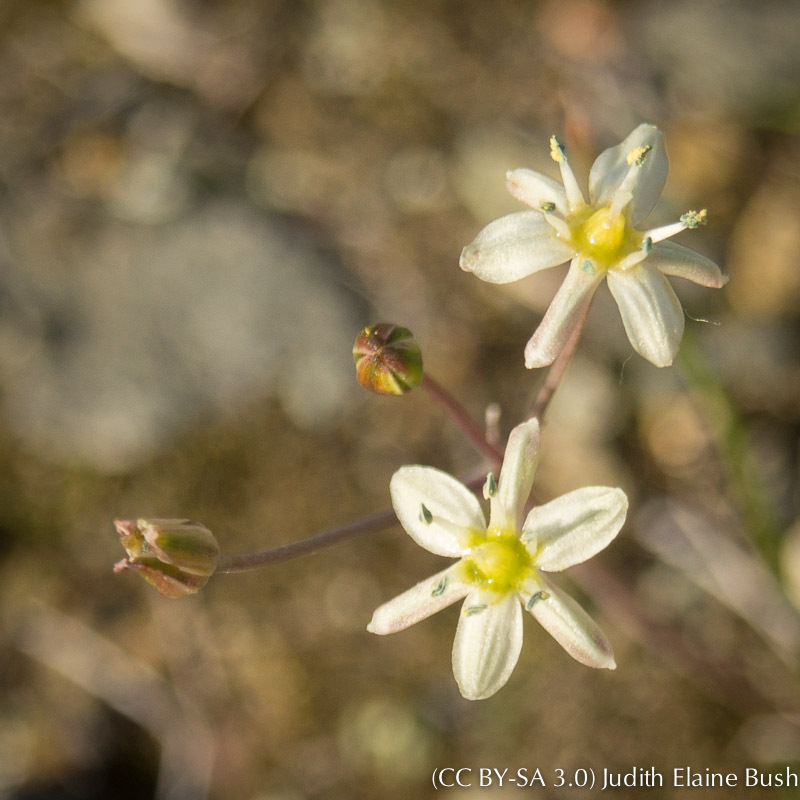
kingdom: Plantae
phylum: Tracheophyta
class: Liliopsida
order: Asparagales
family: Asparagaceae
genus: Muilla
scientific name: Muilla maritima
